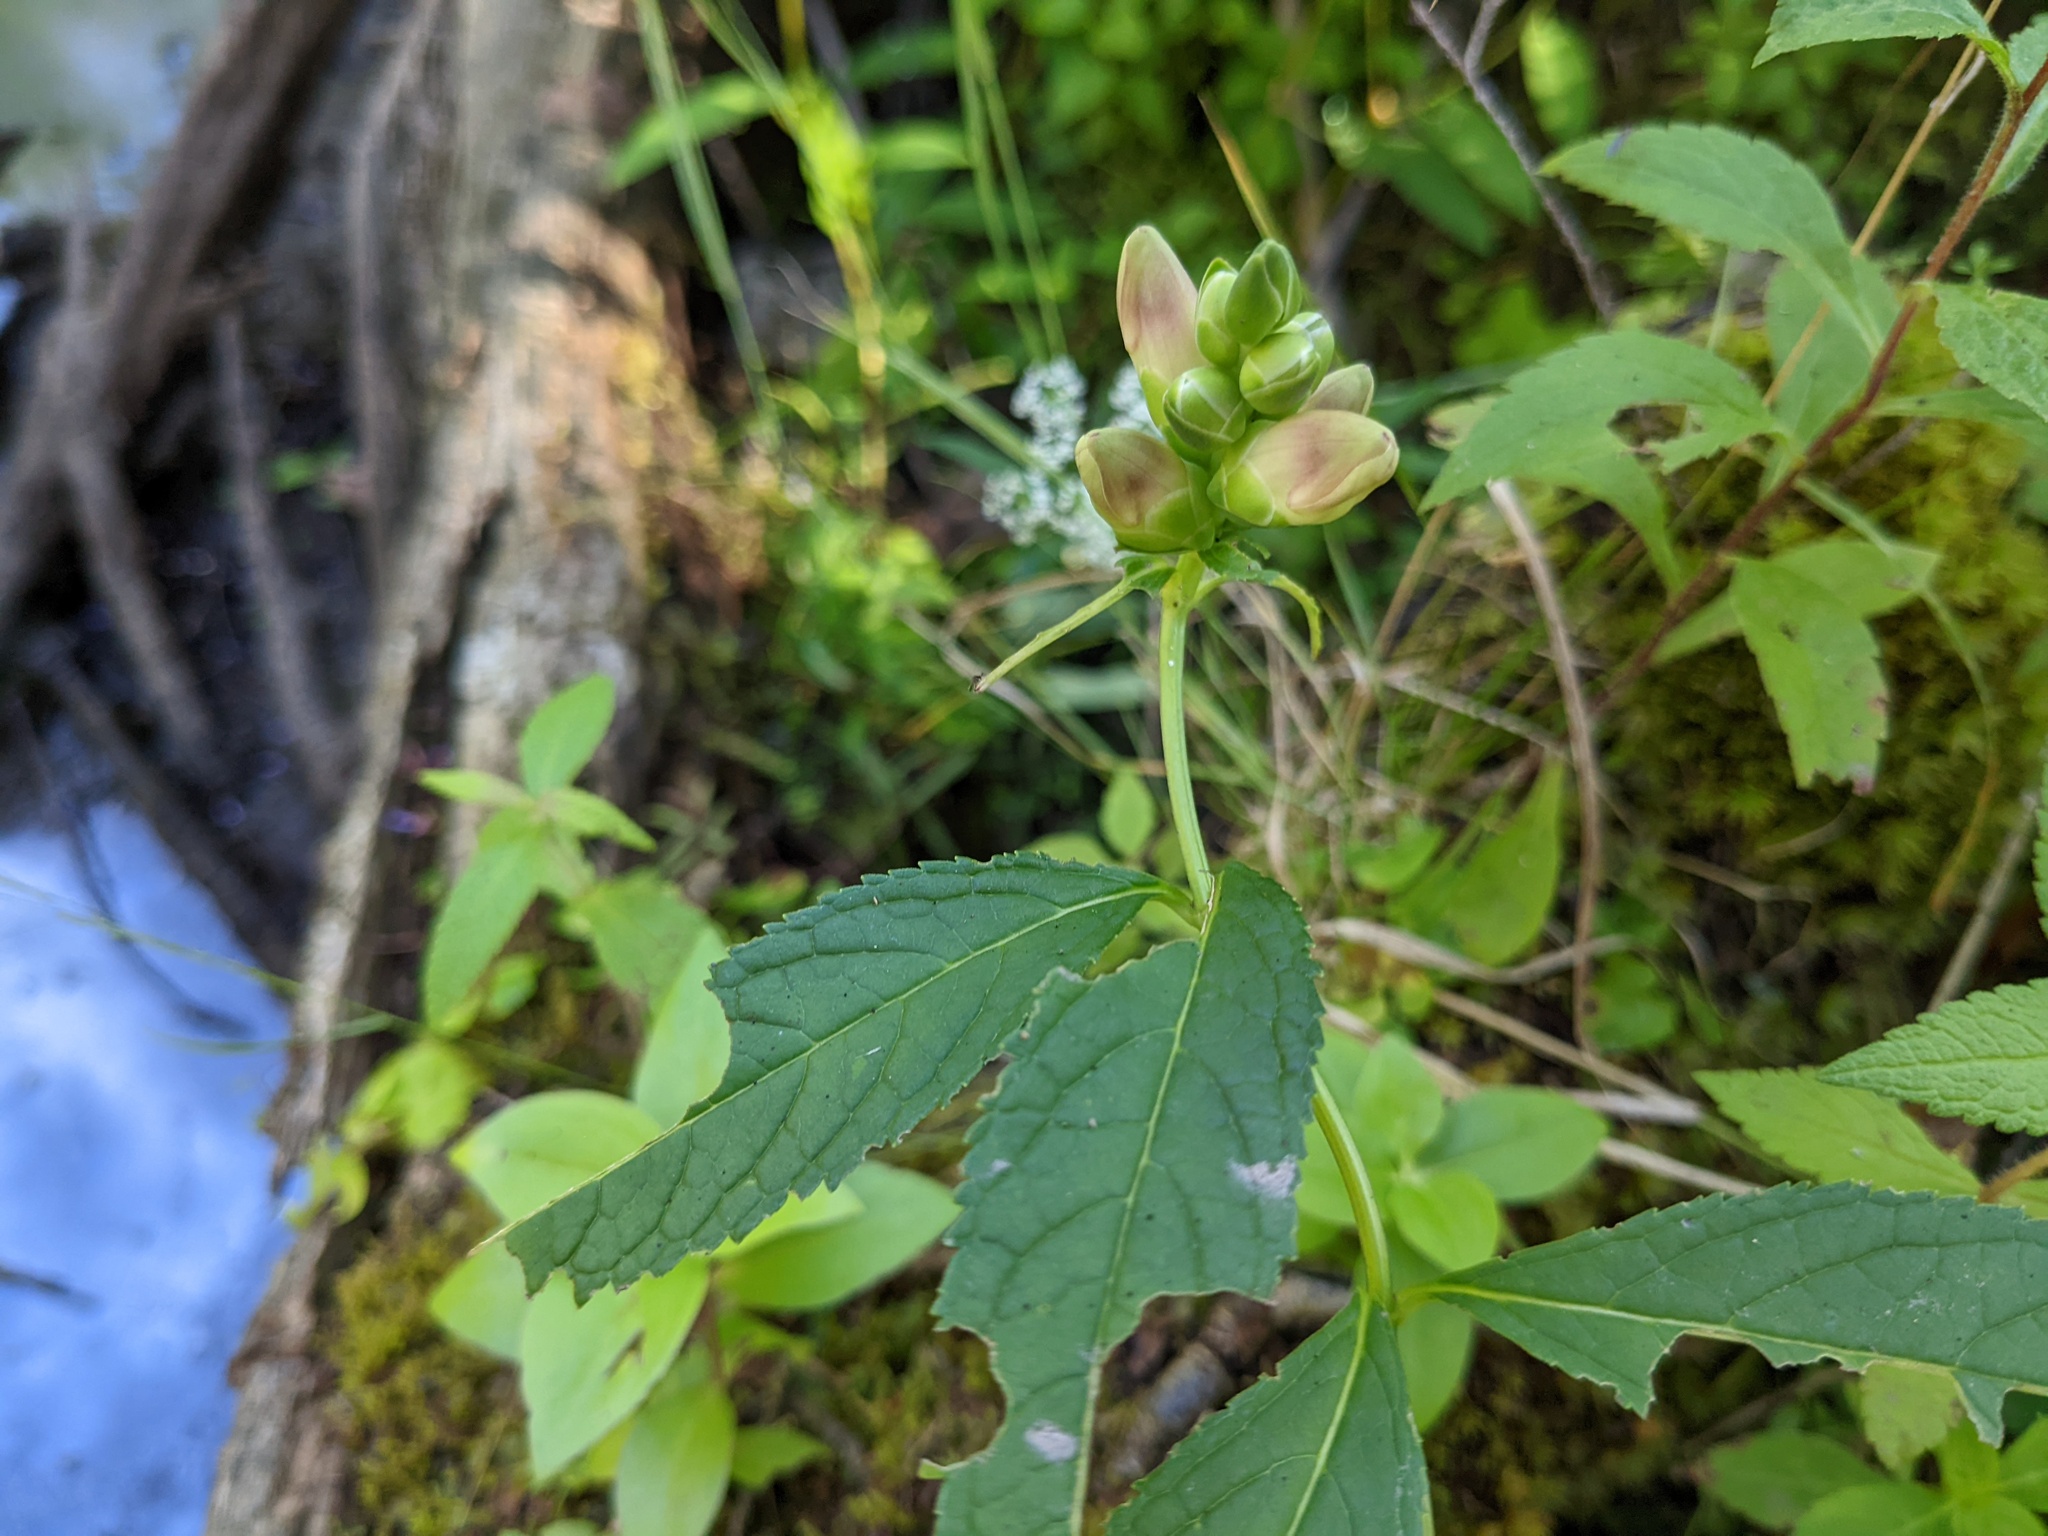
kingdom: Plantae
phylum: Tracheophyta
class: Magnoliopsida
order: Lamiales
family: Plantaginaceae
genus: Chelone
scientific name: Chelone glabra
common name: Snakehead
